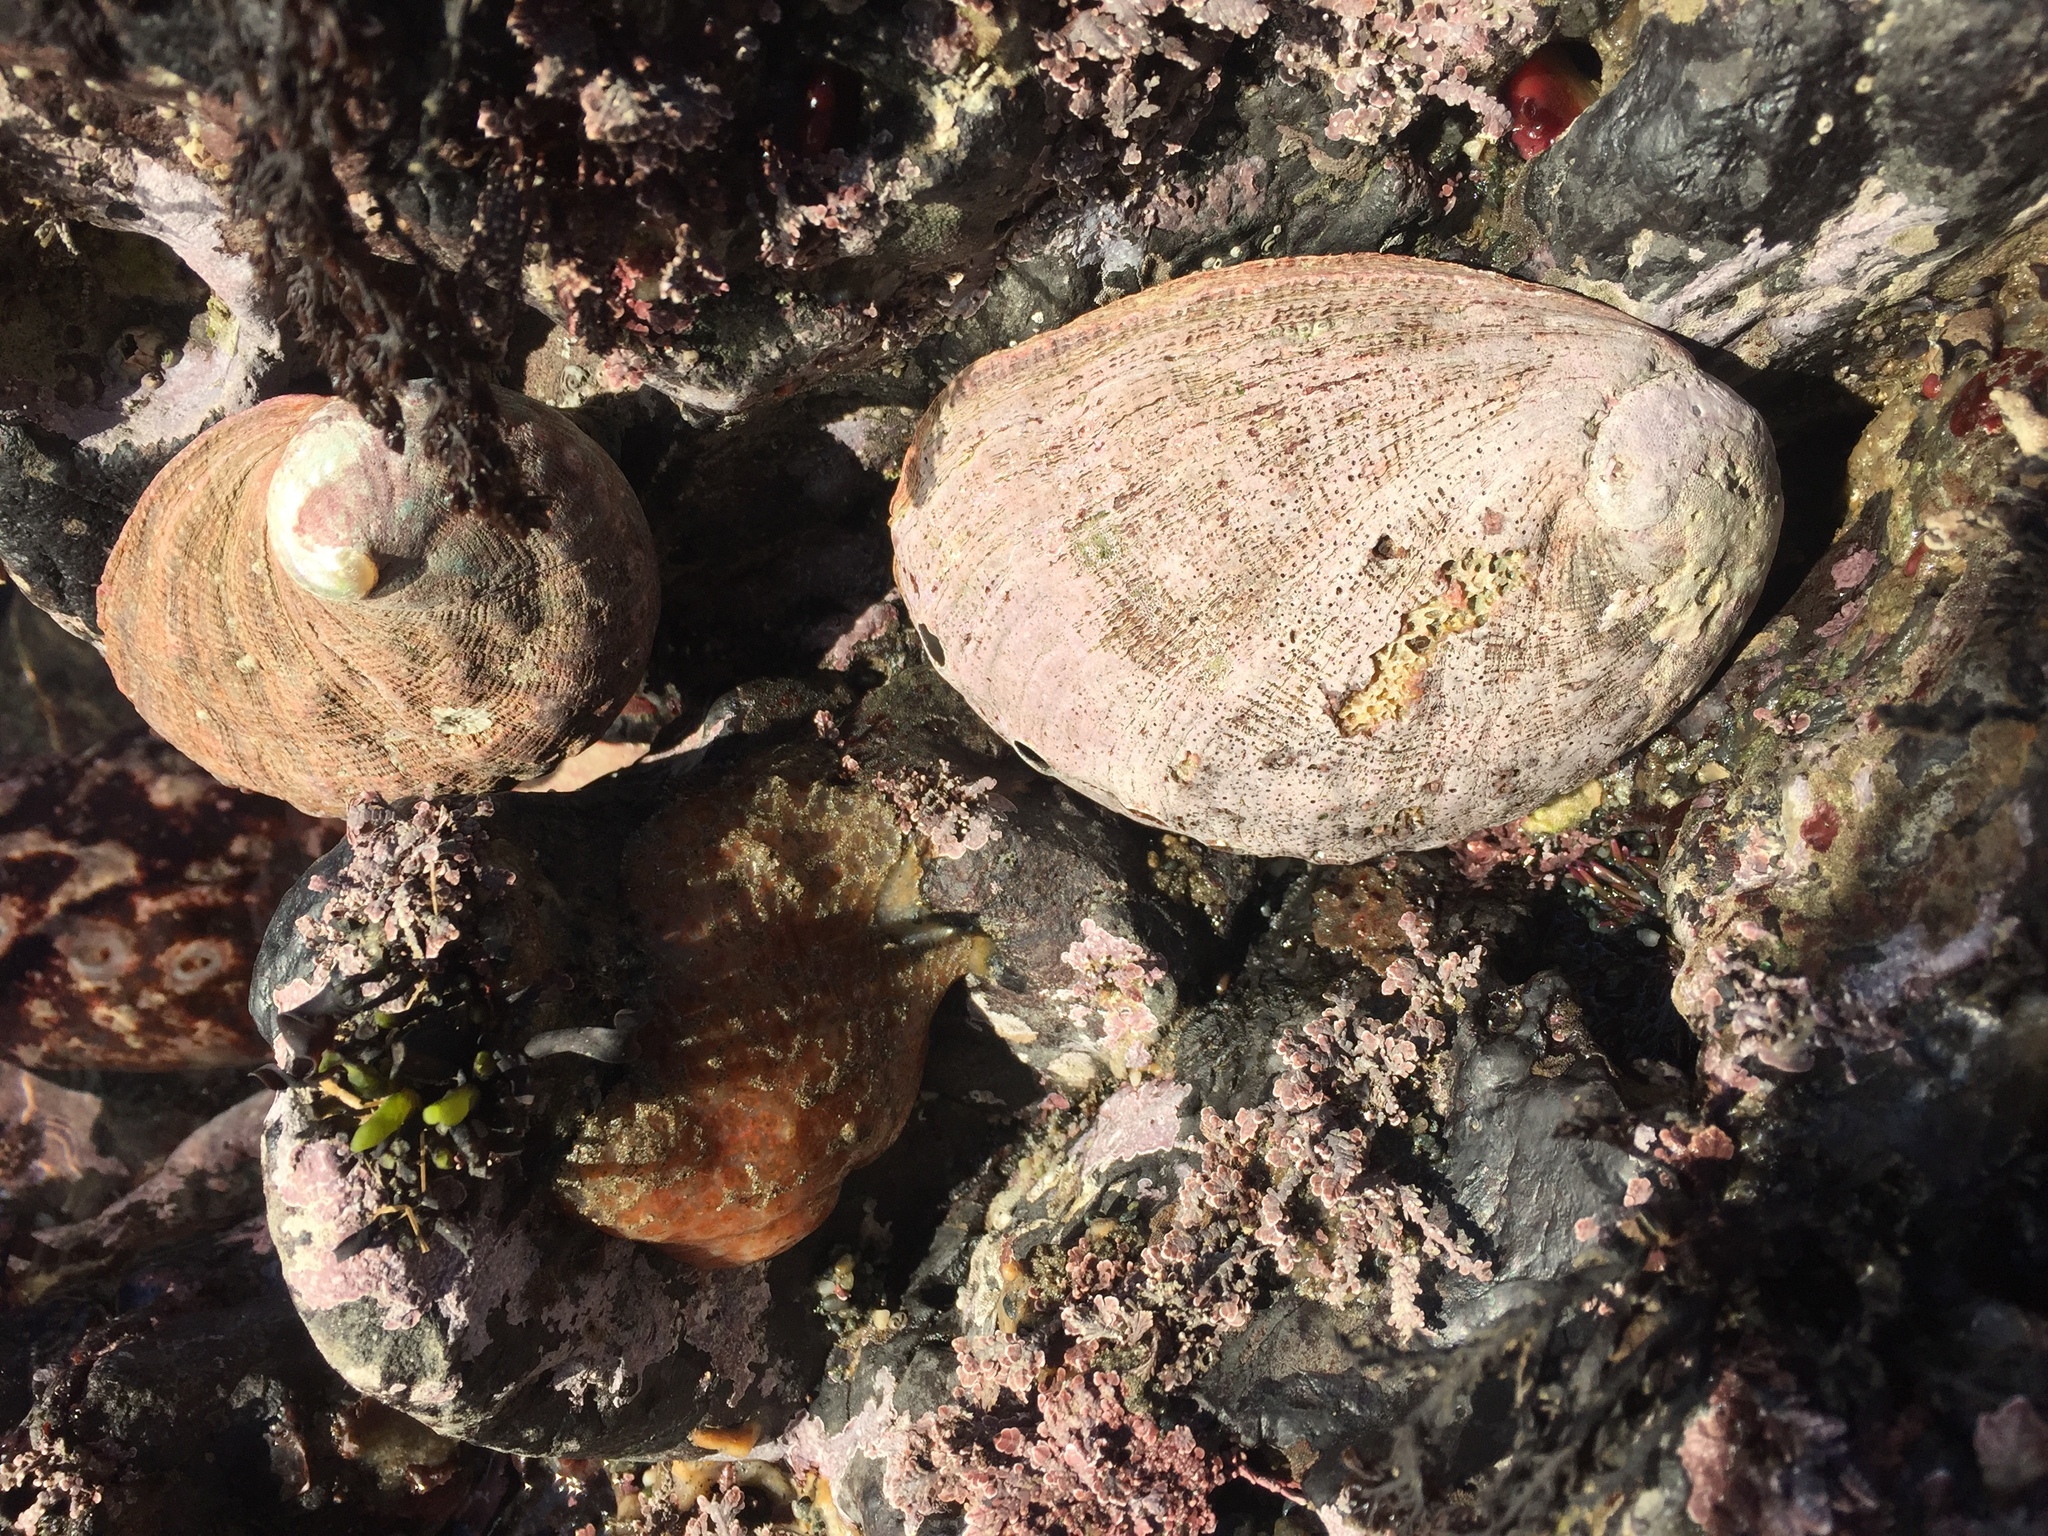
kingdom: Animalia
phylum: Mollusca
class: Gastropoda
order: Lepetellida
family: Haliotidae
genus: Haliotis
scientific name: Haliotis rufescens
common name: Red abalone
